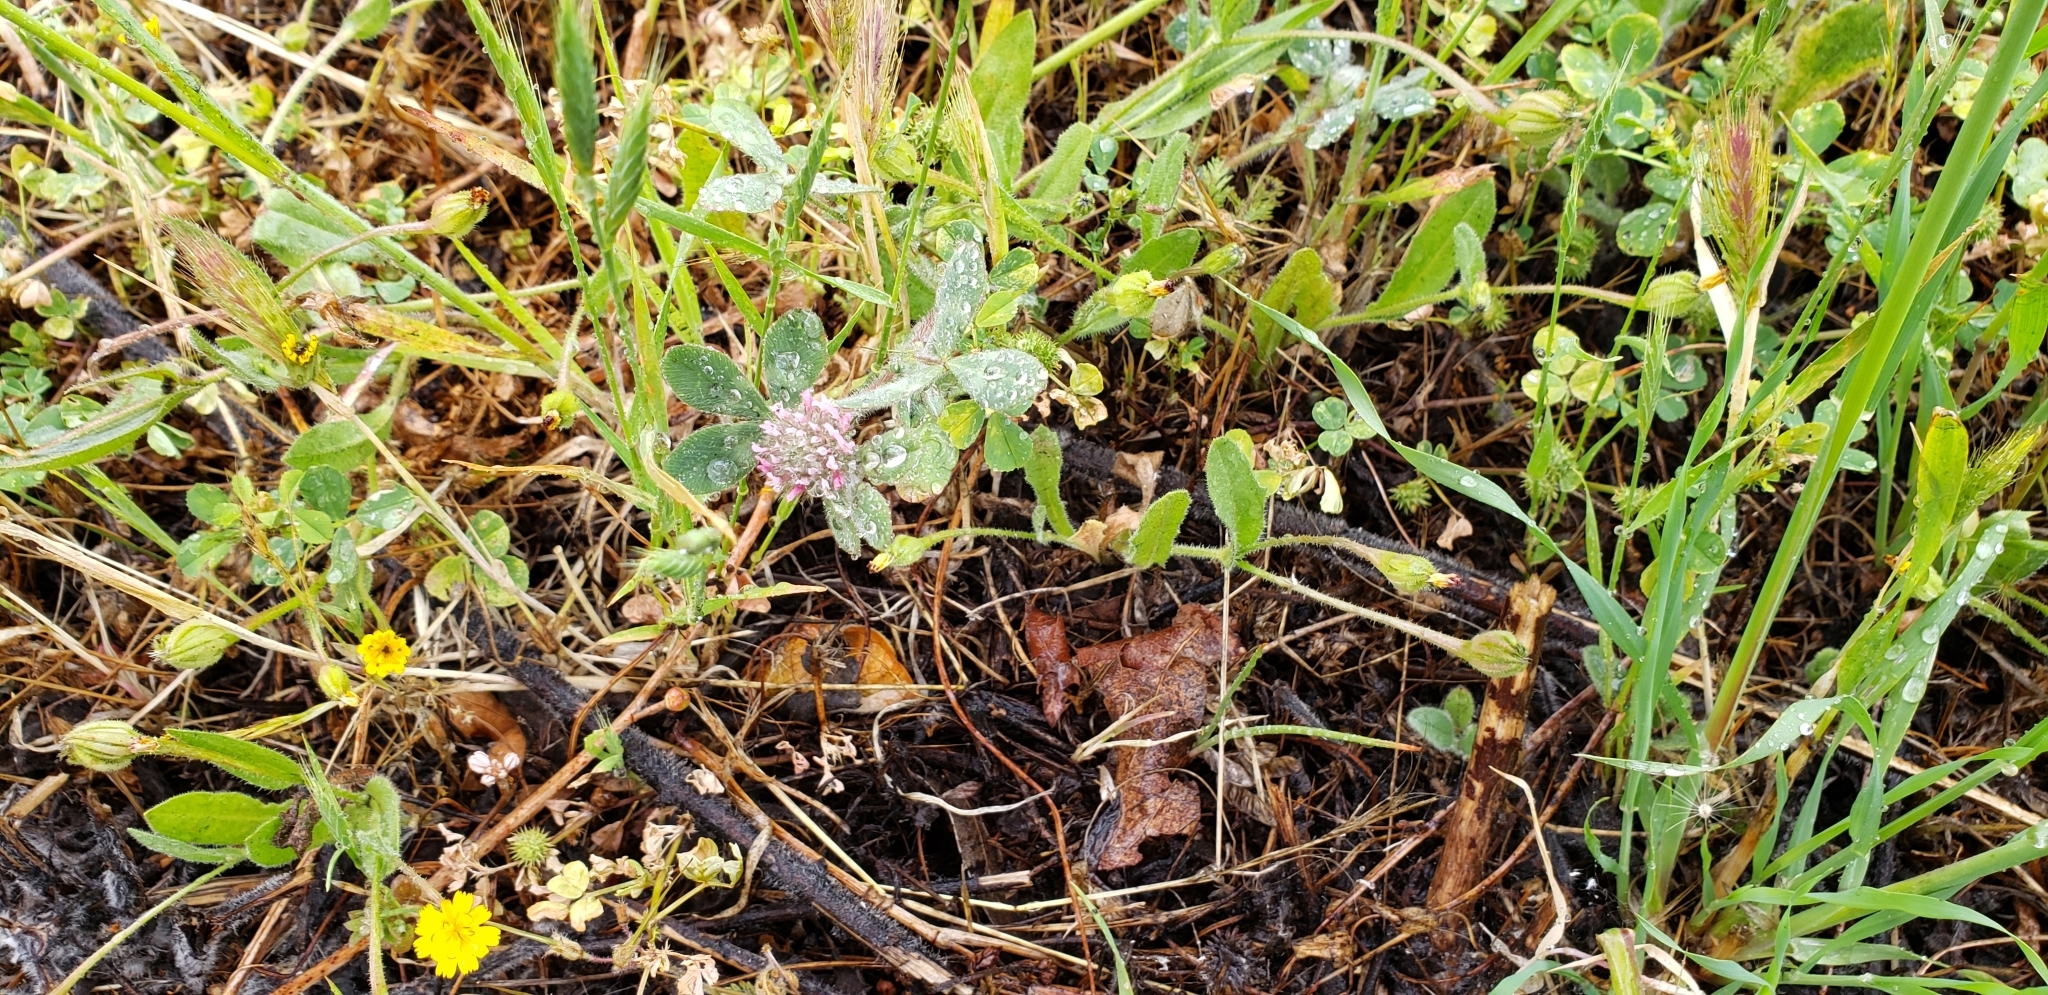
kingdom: Plantae
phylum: Tracheophyta
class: Magnoliopsida
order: Fabales
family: Fabaceae
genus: Trifolium
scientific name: Trifolium hirtum
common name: Rose clover
